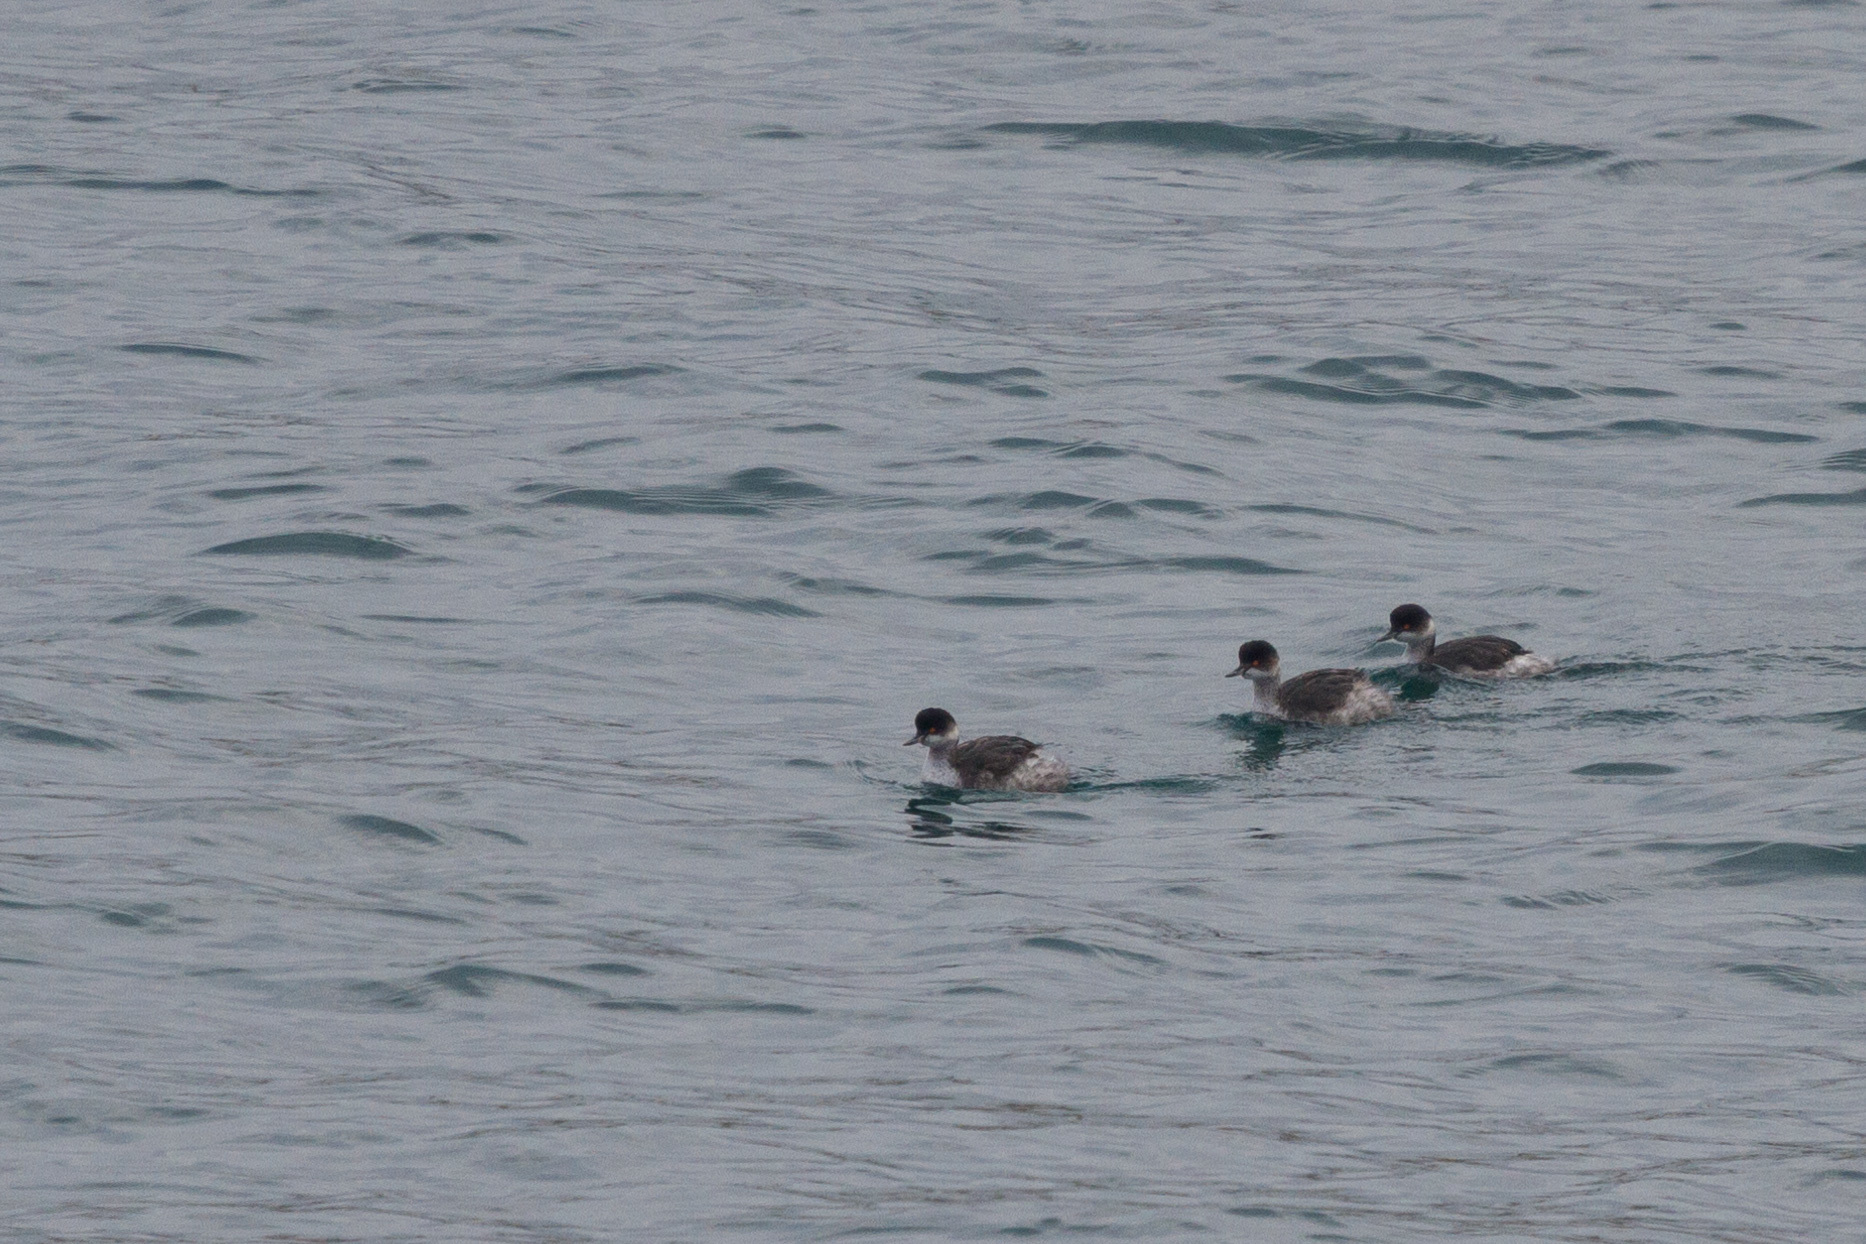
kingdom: Animalia
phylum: Chordata
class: Aves
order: Podicipediformes
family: Podicipedidae
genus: Podiceps
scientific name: Podiceps nigricollis
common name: Black-necked grebe
